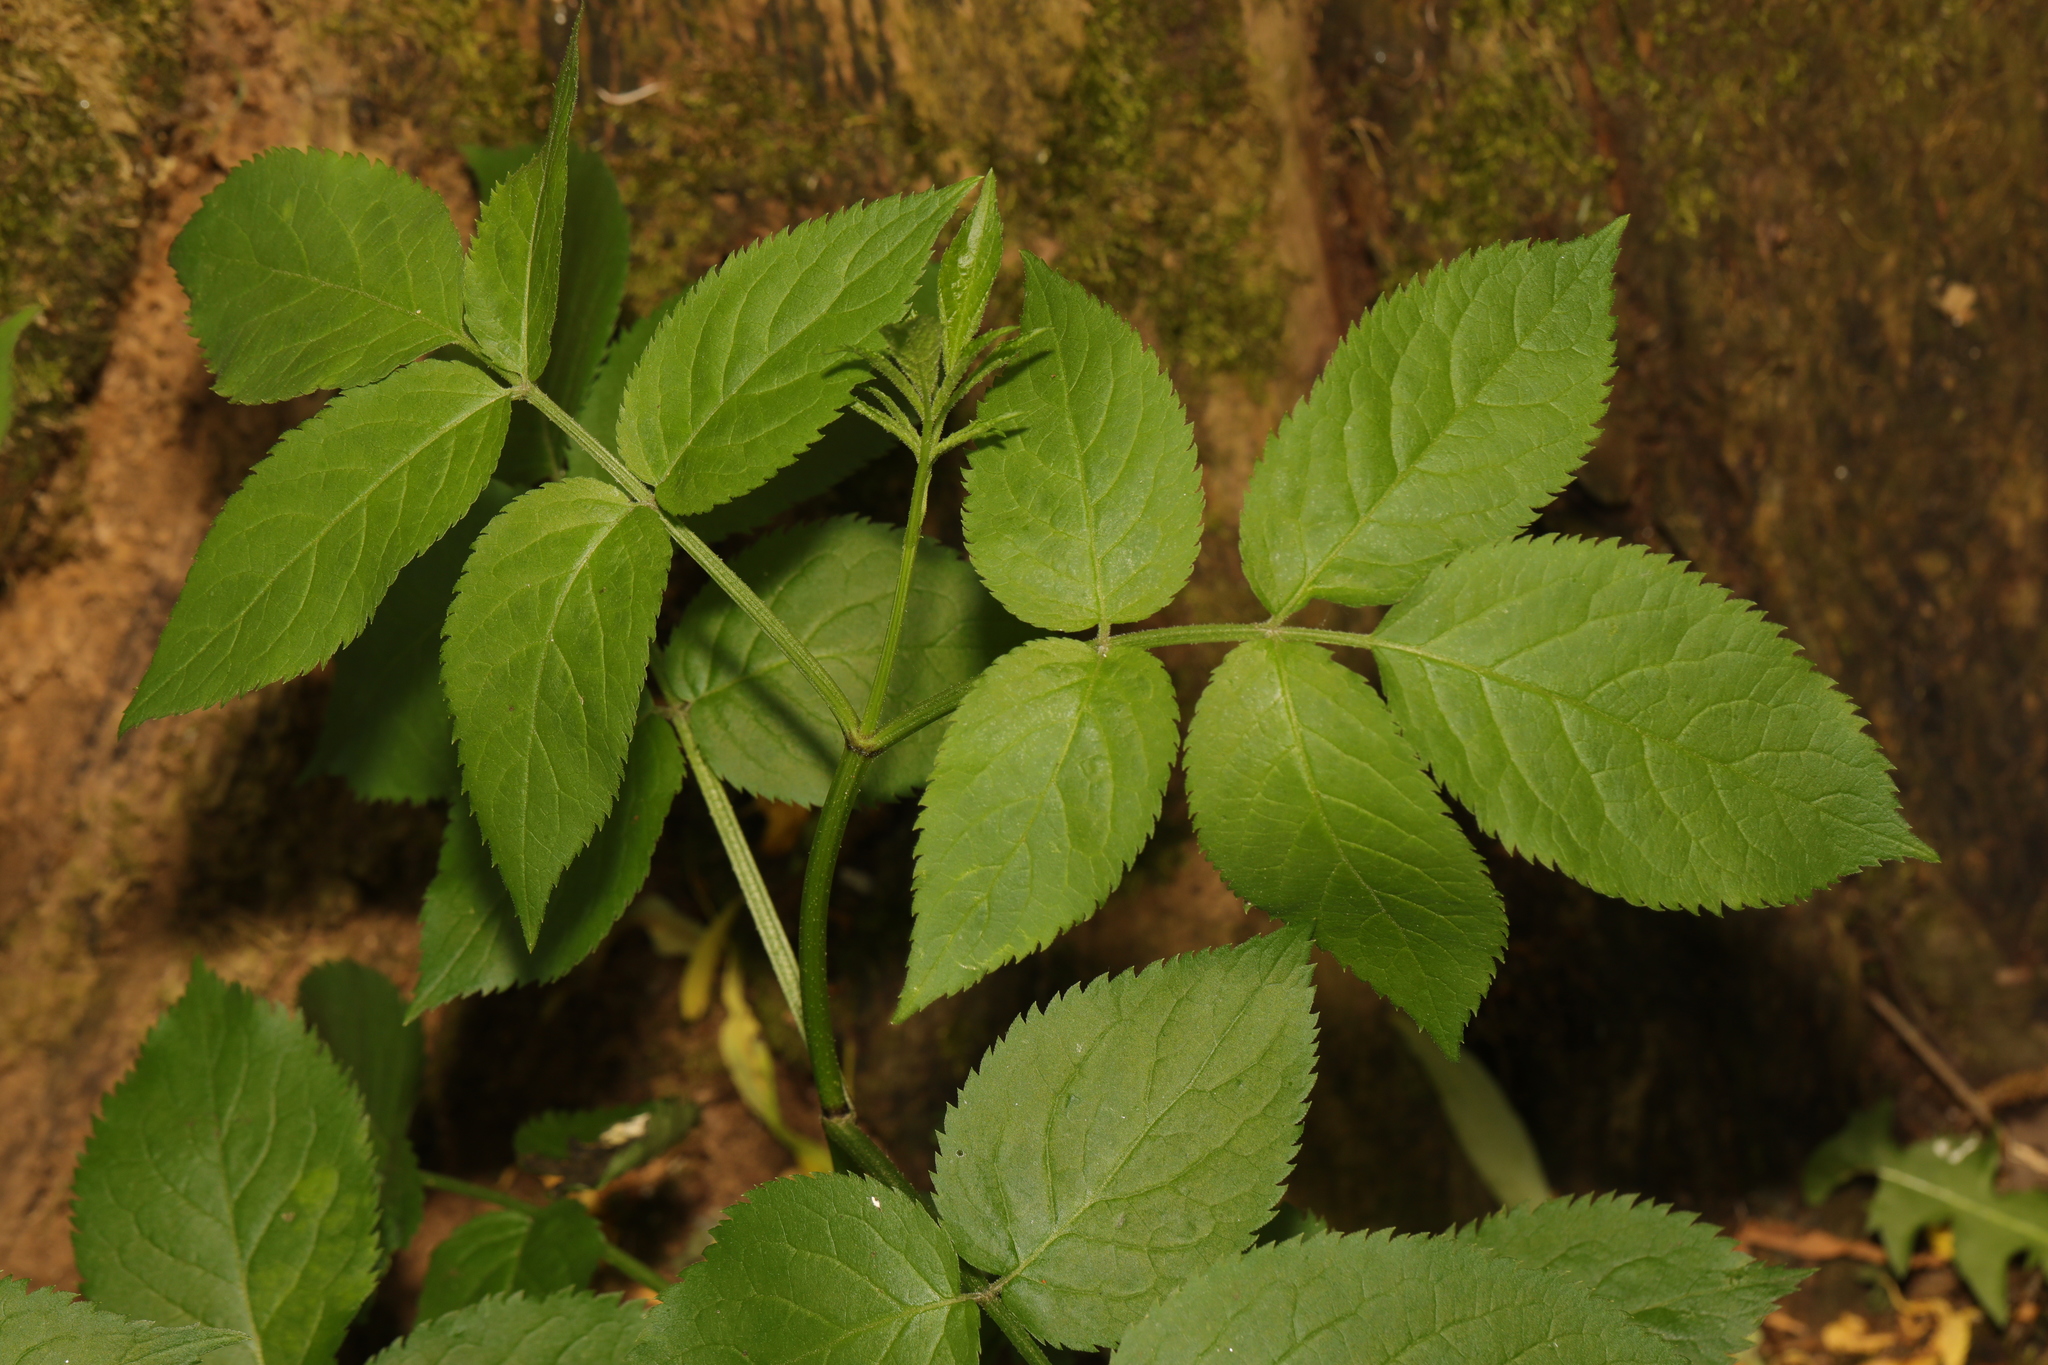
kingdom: Plantae
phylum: Tracheophyta
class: Magnoliopsida
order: Dipsacales
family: Viburnaceae
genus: Sambucus
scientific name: Sambucus nigra
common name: Elder
